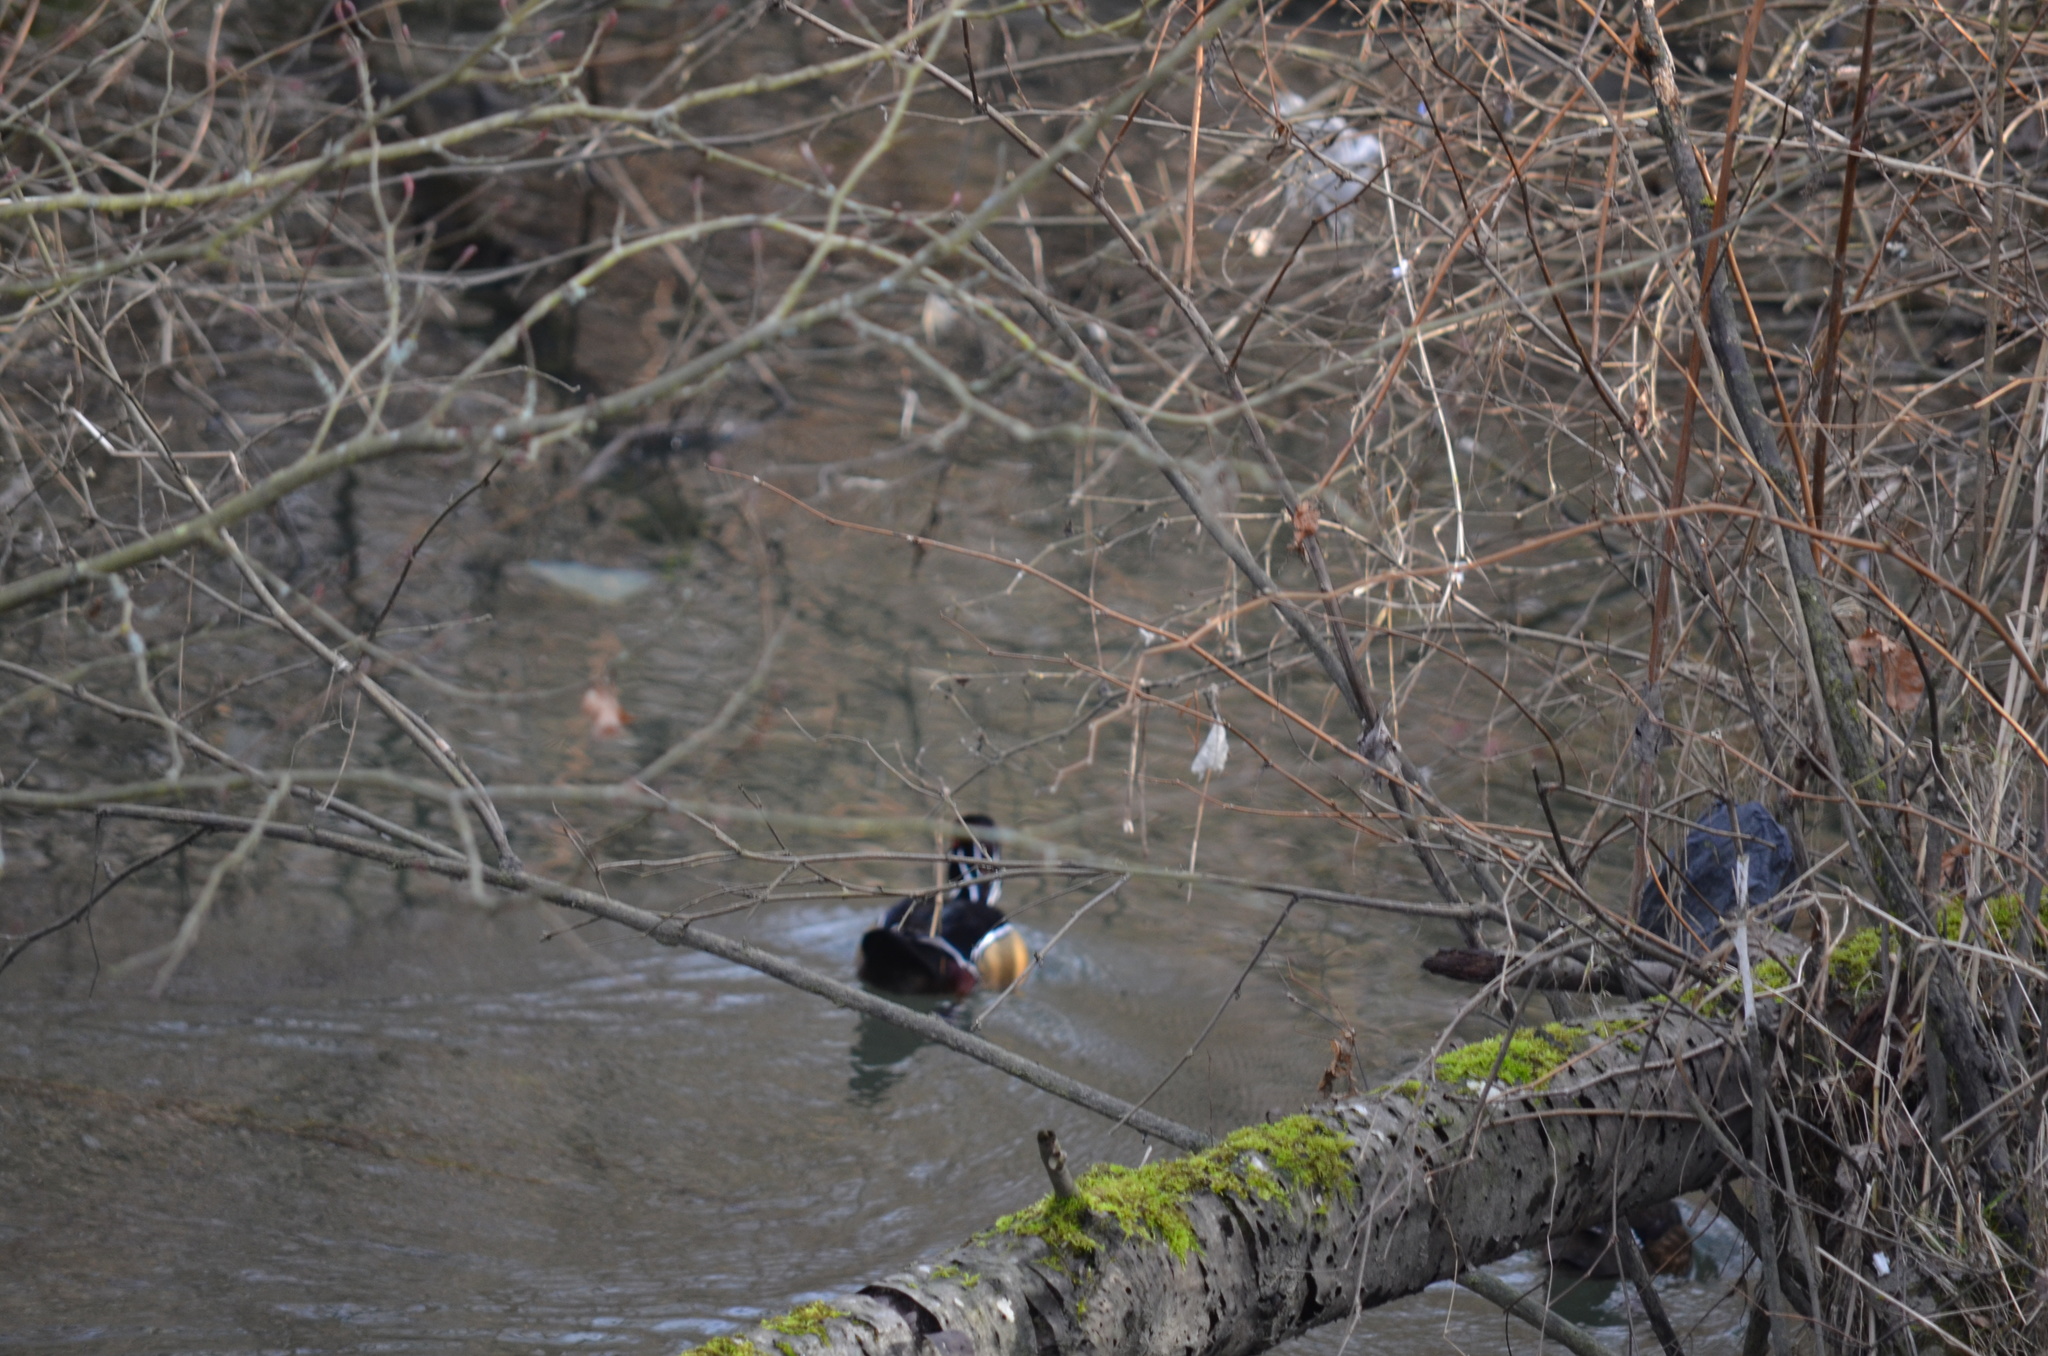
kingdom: Animalia
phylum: Chordata
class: Aves
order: Anseriformes
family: Anatidae
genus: Aix
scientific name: Aix sponsa
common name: Wood duck
